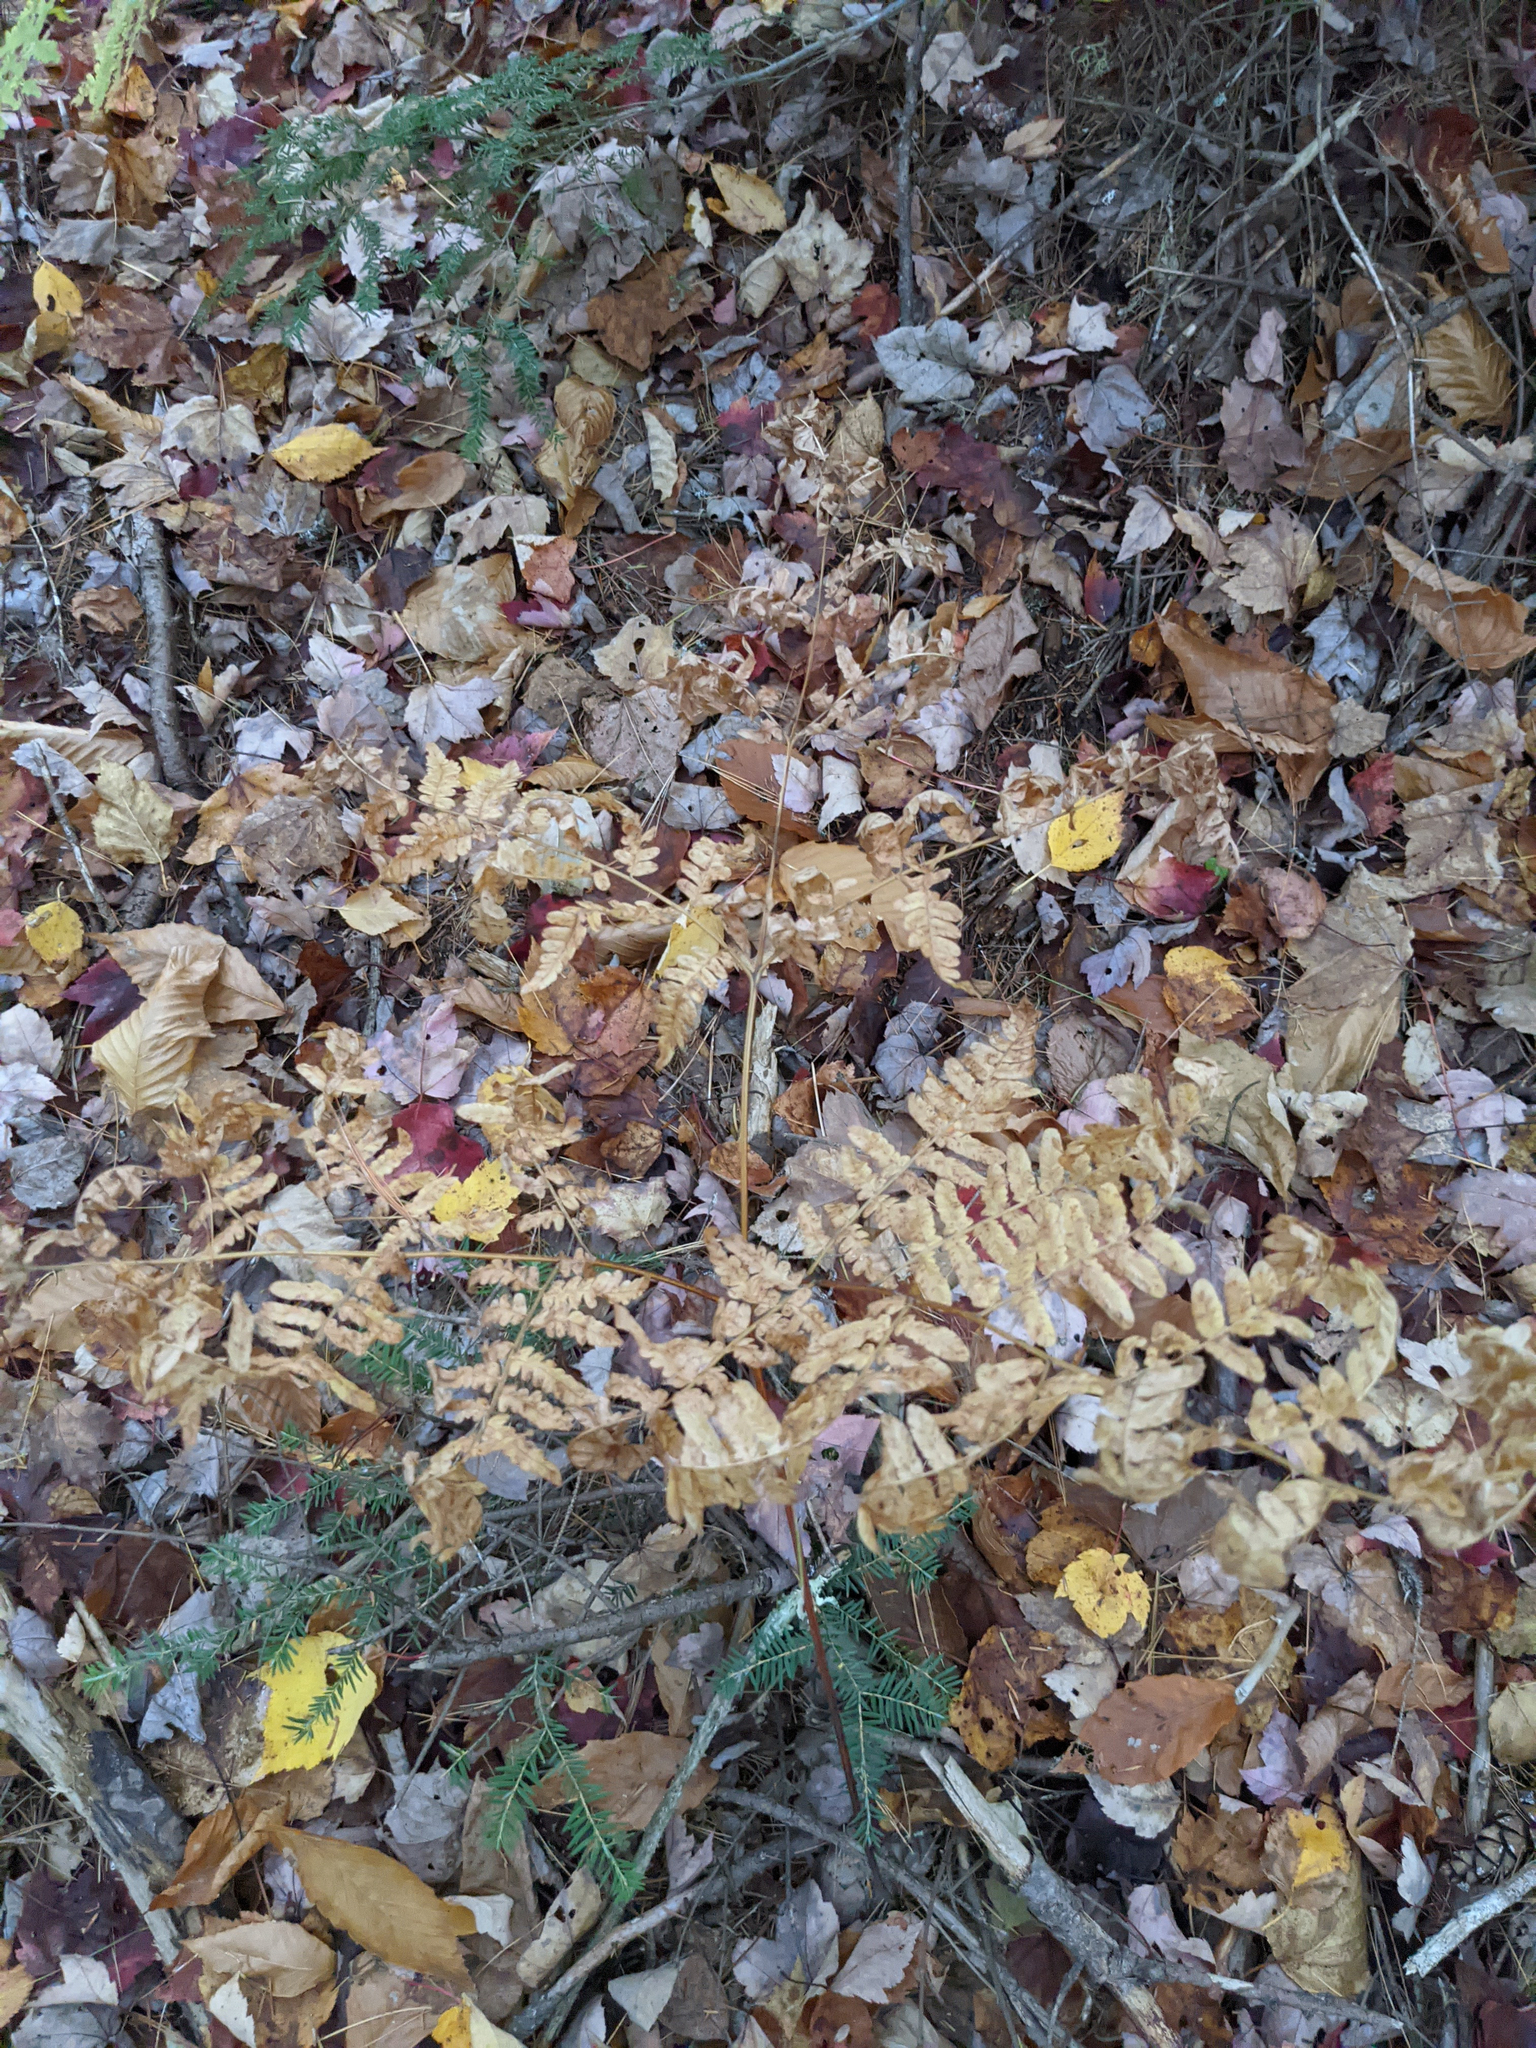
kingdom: Plantae
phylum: Tracheophyta
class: Polypodiopsida
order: Polypodiales
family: Dennstaedtiaceae
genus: Pteridium
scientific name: Pteridium aquilinum
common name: Bracken
